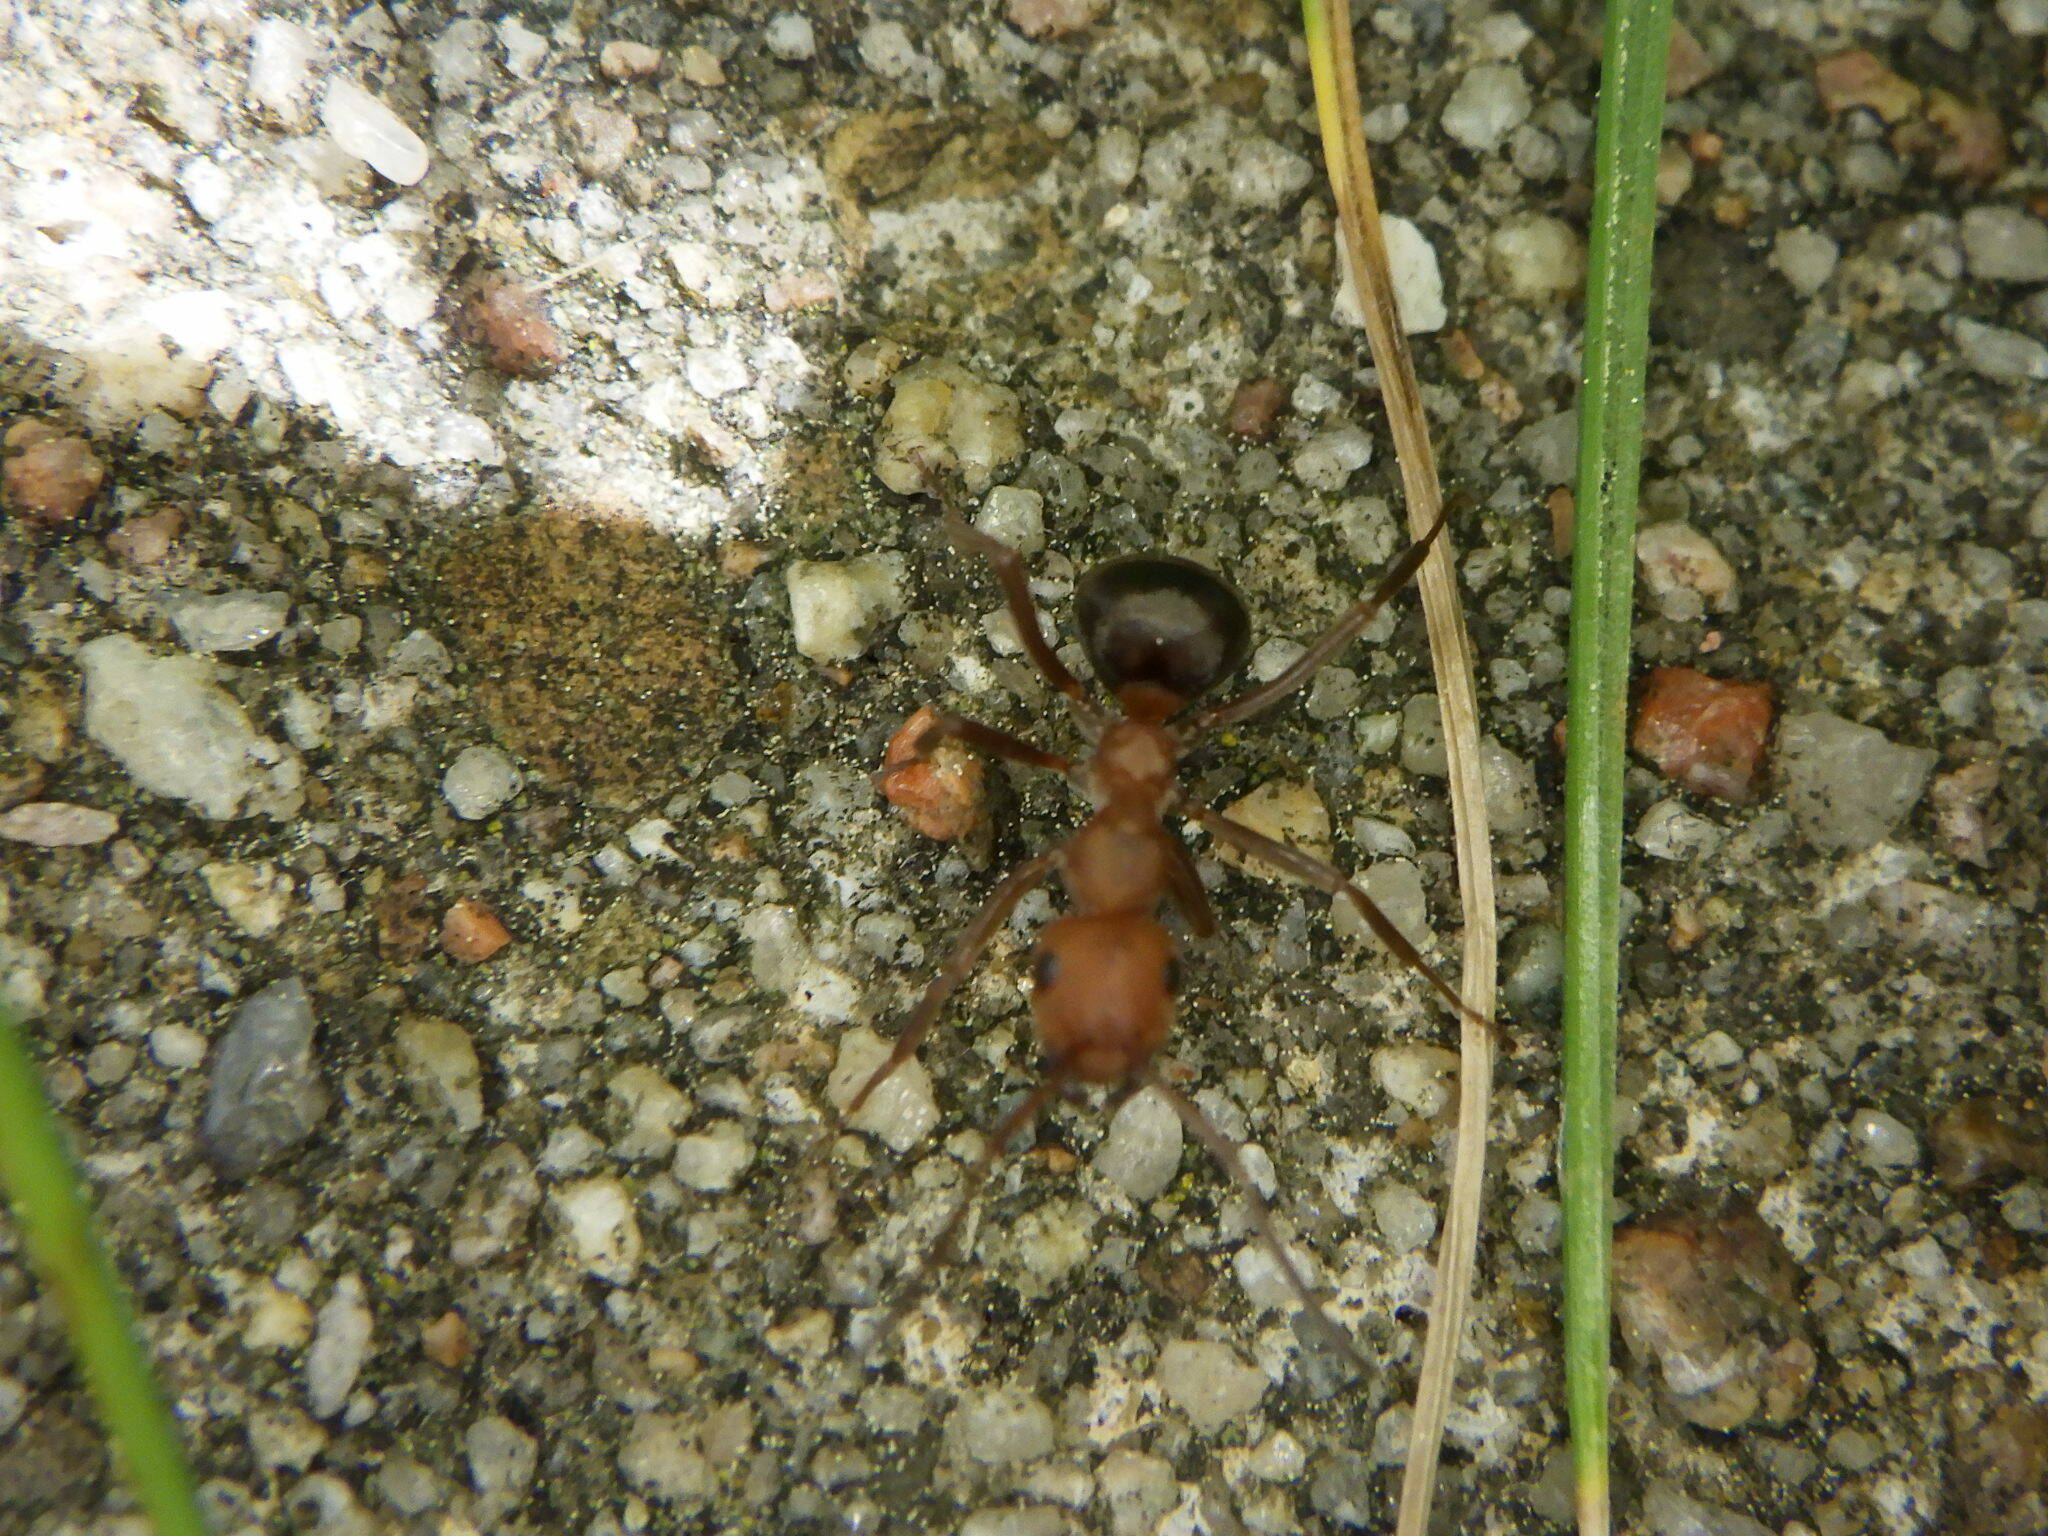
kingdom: Animalia
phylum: Arthropoda
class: Insecta
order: Hymenoptera
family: Formicidae
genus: Formica
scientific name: Formica
